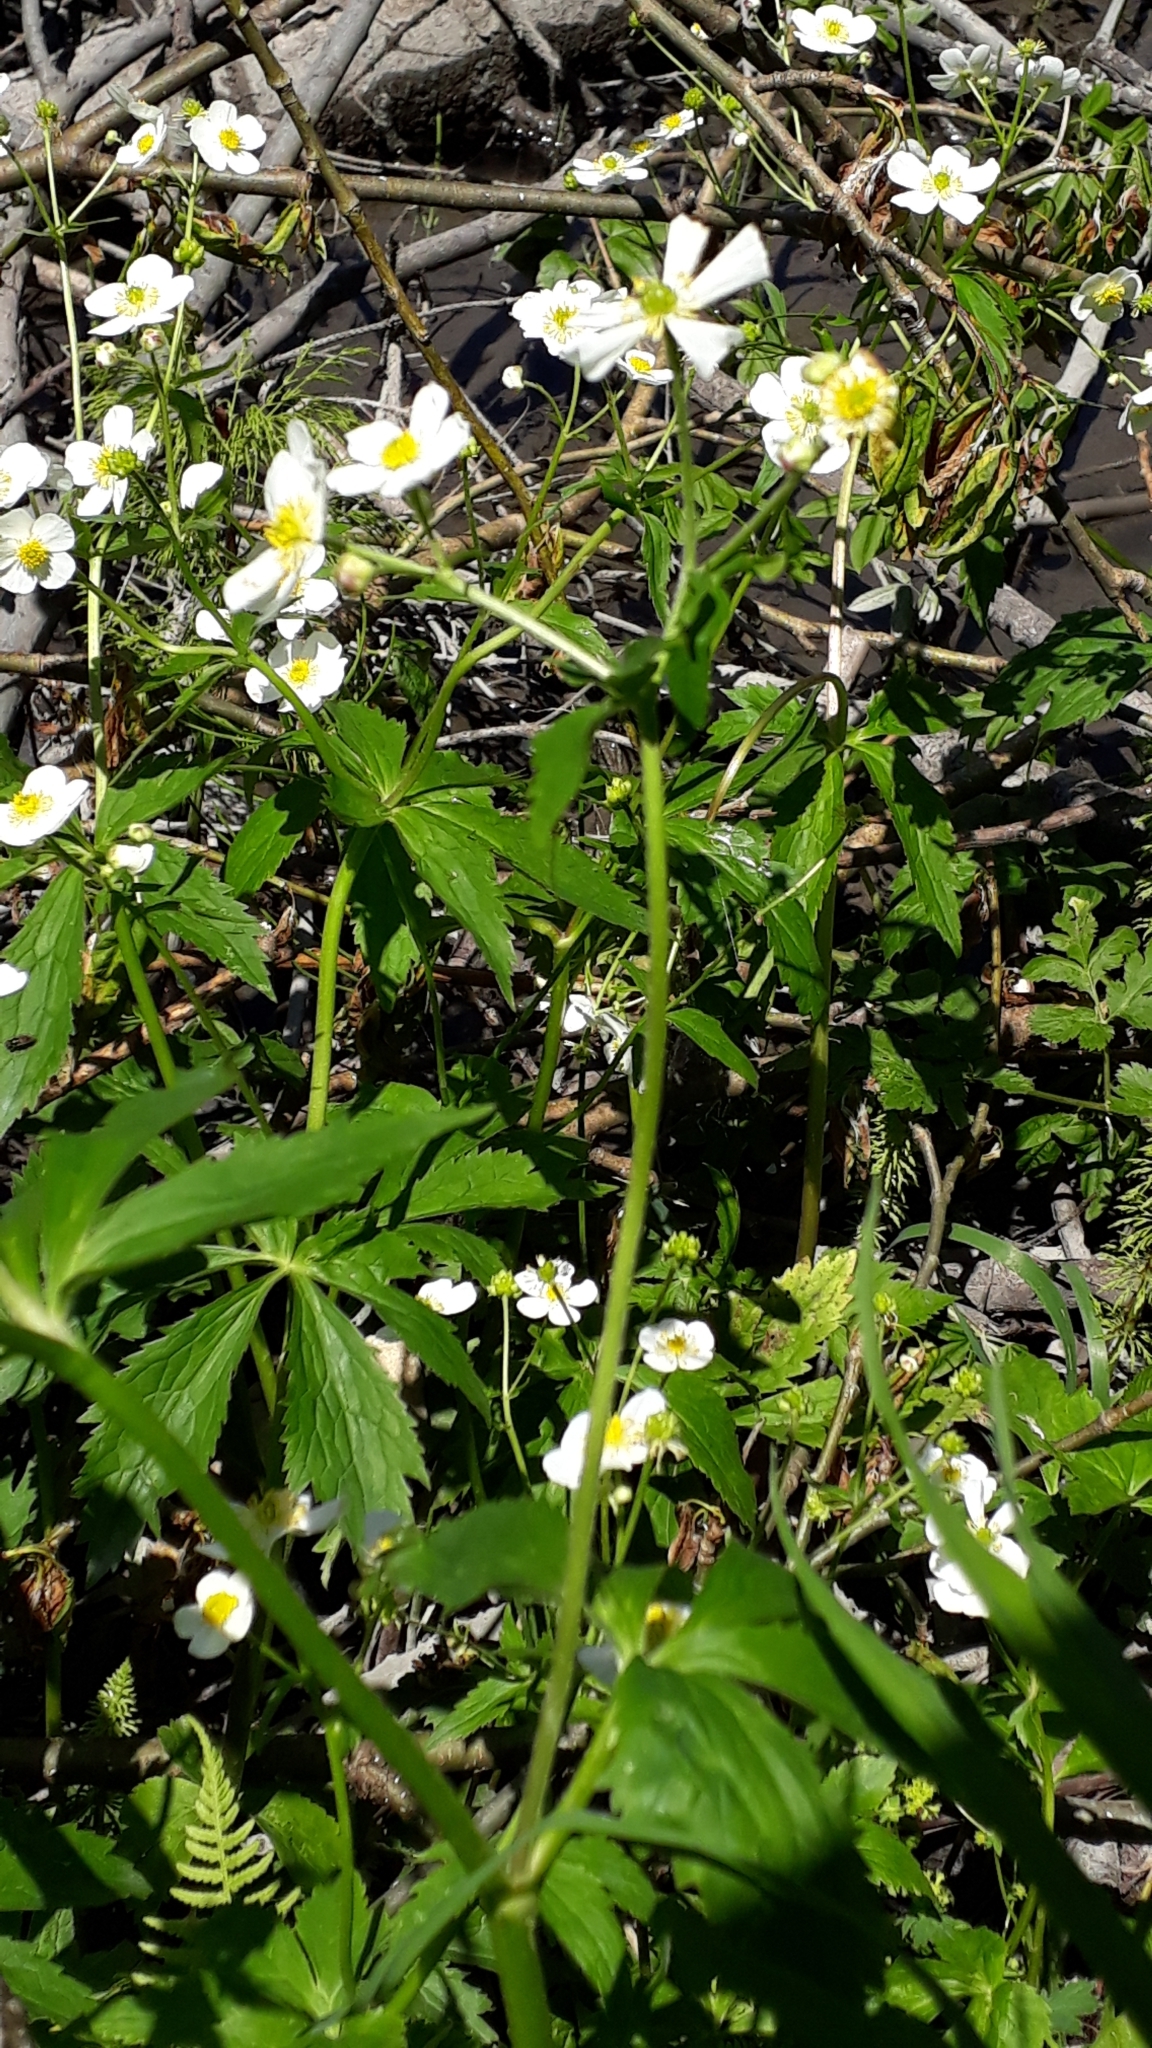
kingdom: Plantae
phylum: Tracheophyta
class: Magnoliopsida
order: Ranunculales
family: Ranunculaceae
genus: Ranunculus
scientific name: Ranunculus aconitifolius
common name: Aconite-leaved buttercup
